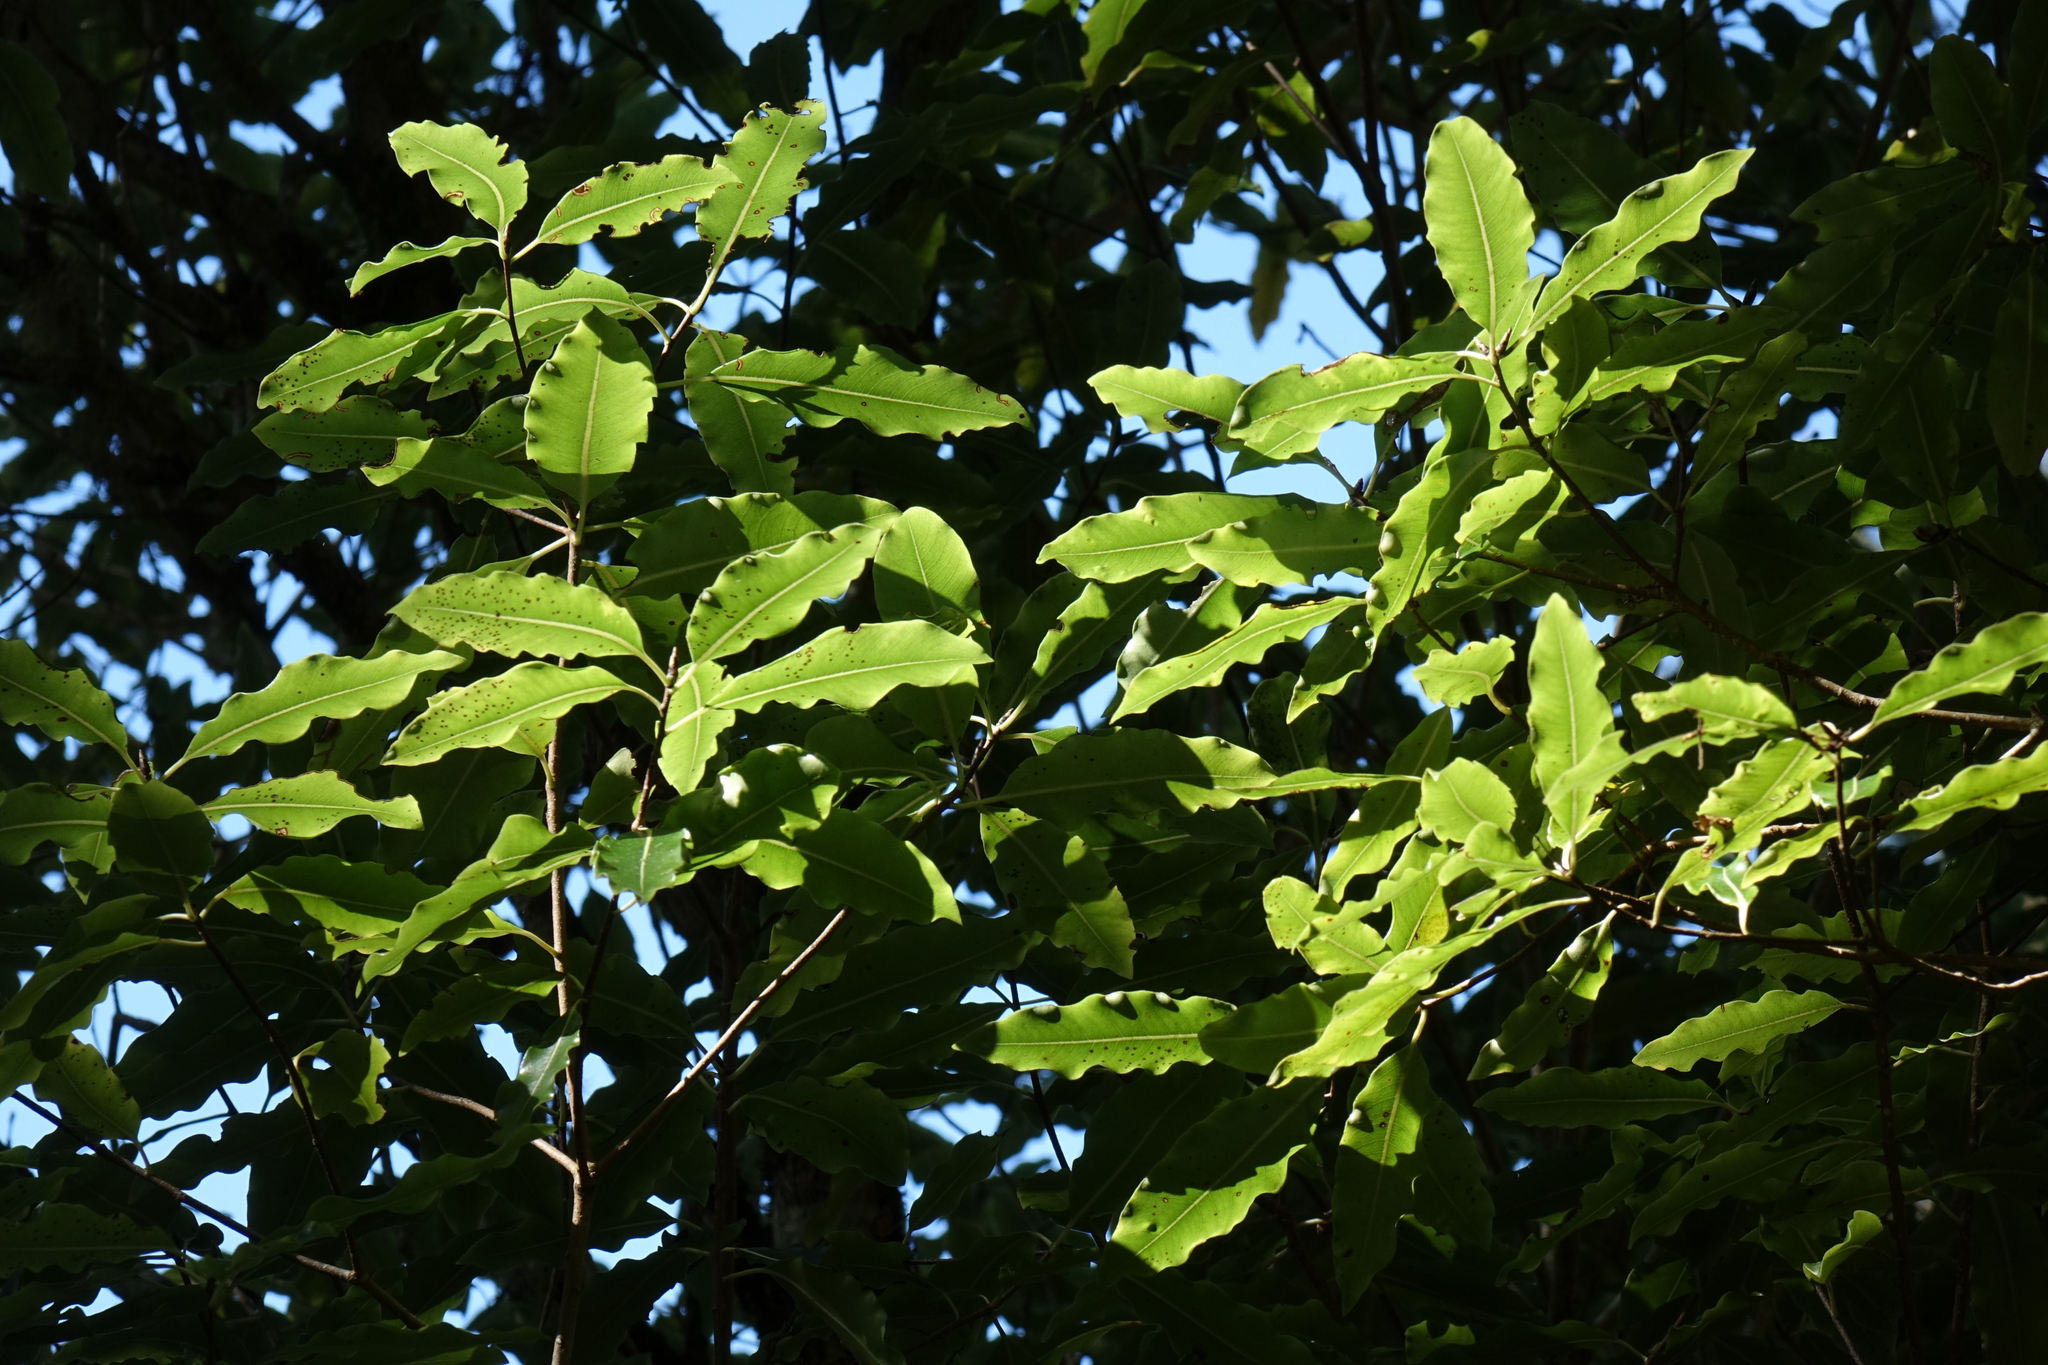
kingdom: Plantae
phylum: Tracheophyta
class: Magnoliopsida
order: Apiales
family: Pittosporaceae
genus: Pittosporum
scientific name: Pittosporum eugenioides
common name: Lemonwood
